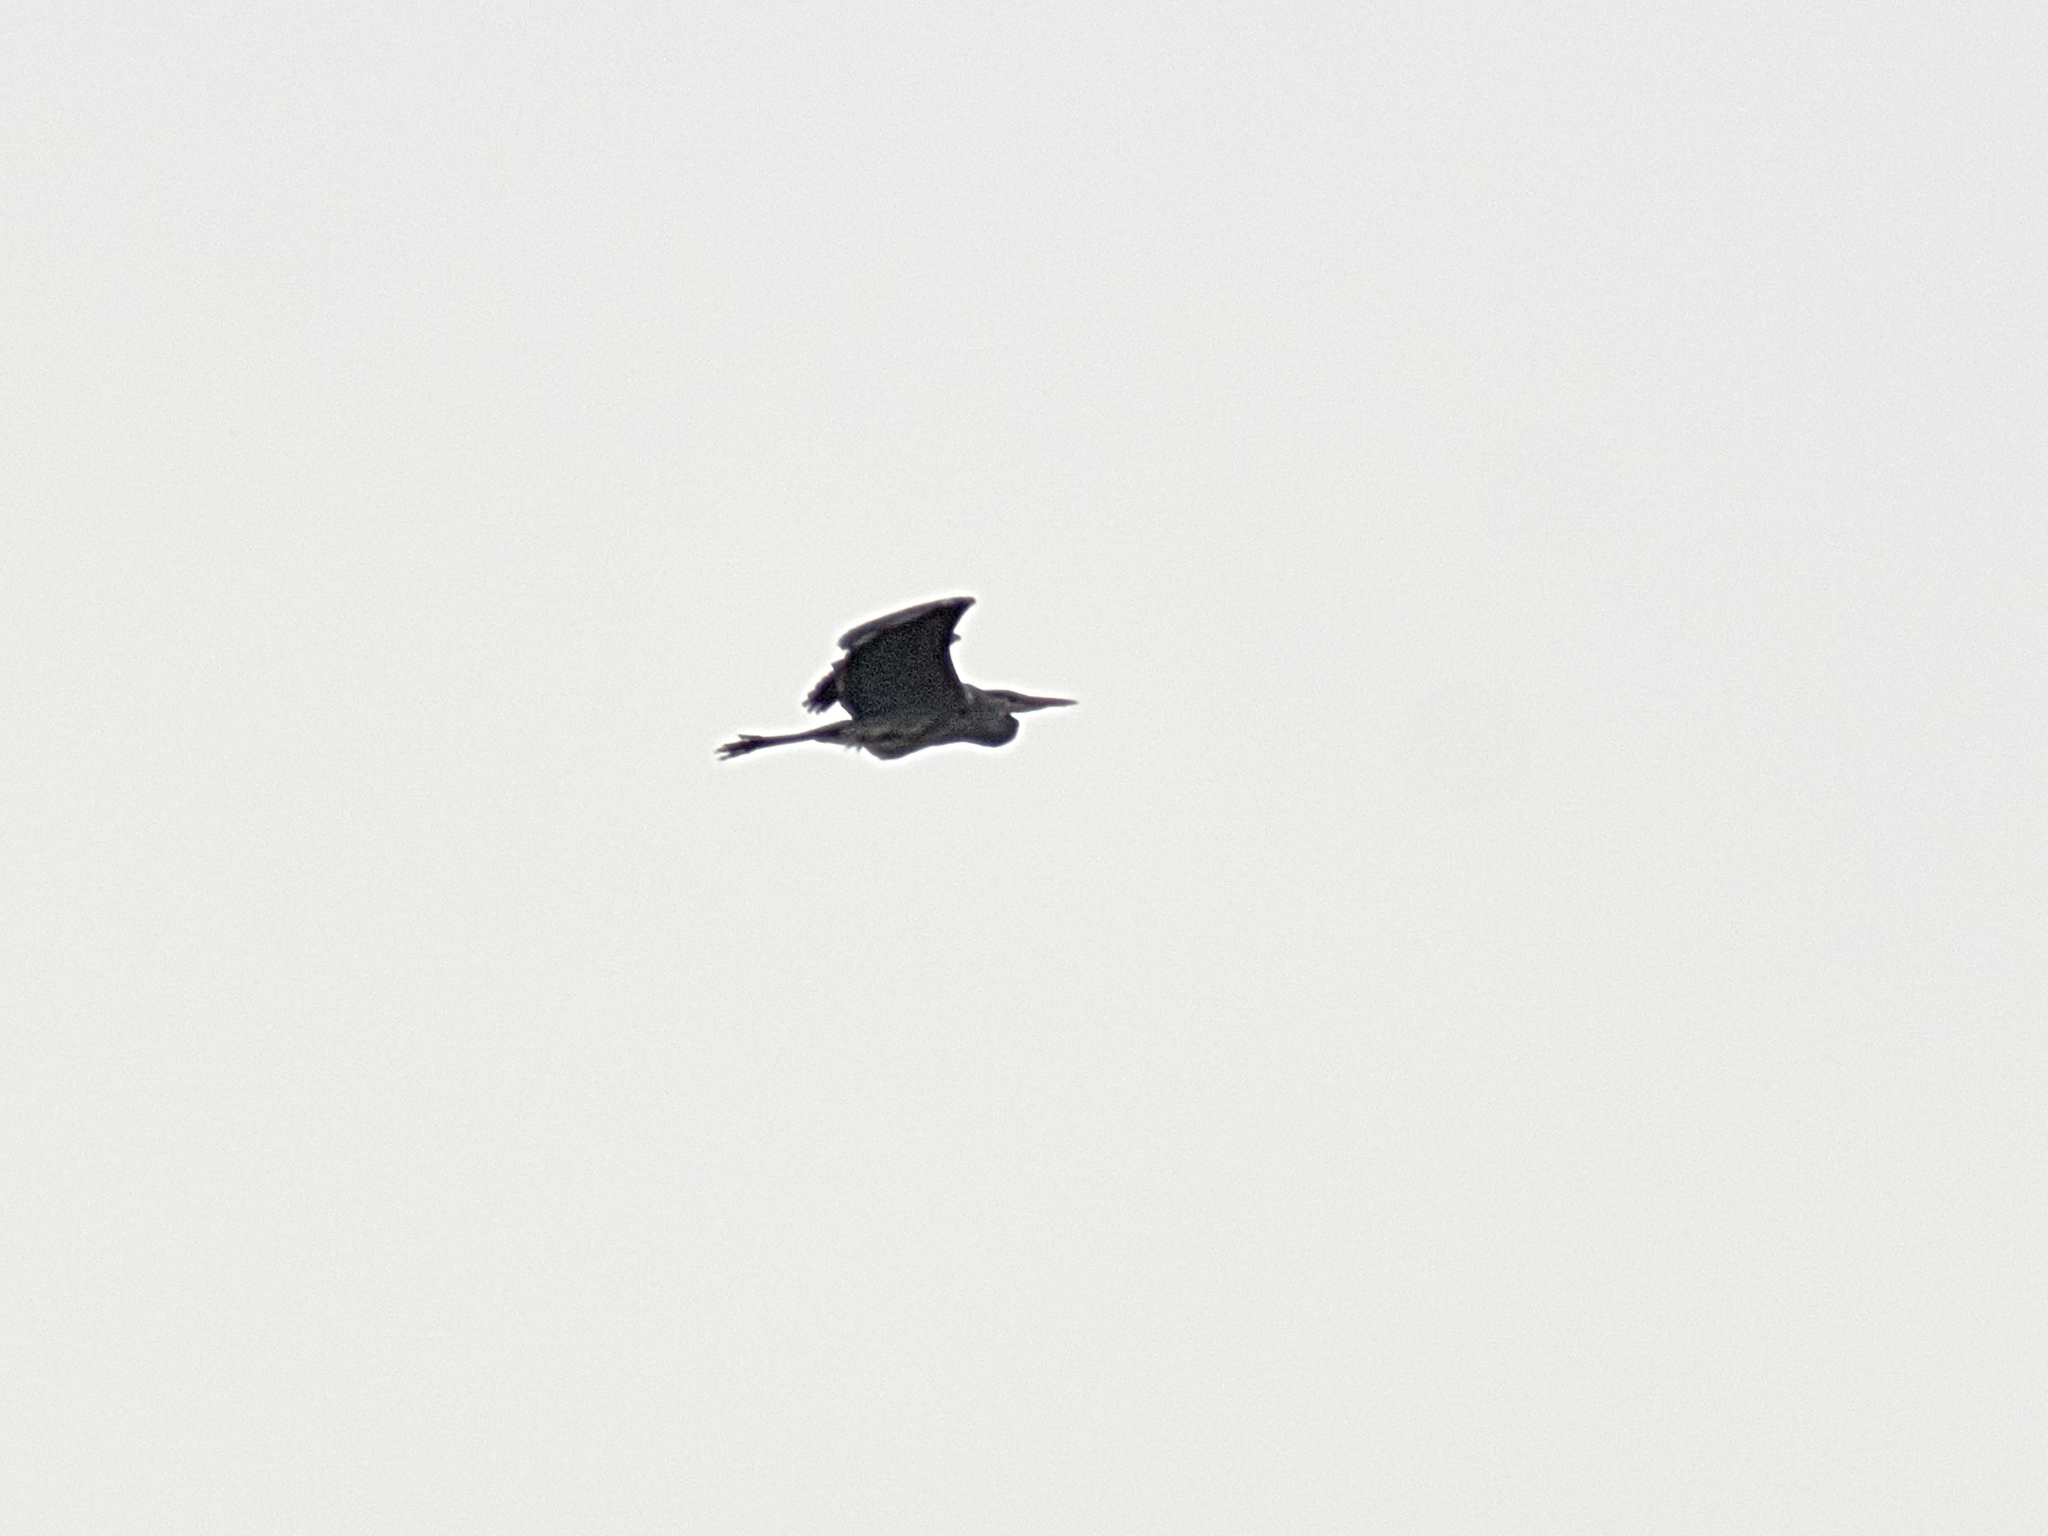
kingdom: Animalia
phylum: Chordata
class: Aves
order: Pelecaniformes
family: Ardeidae
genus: Ardea
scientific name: Ardea cinerea
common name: Grey heron
